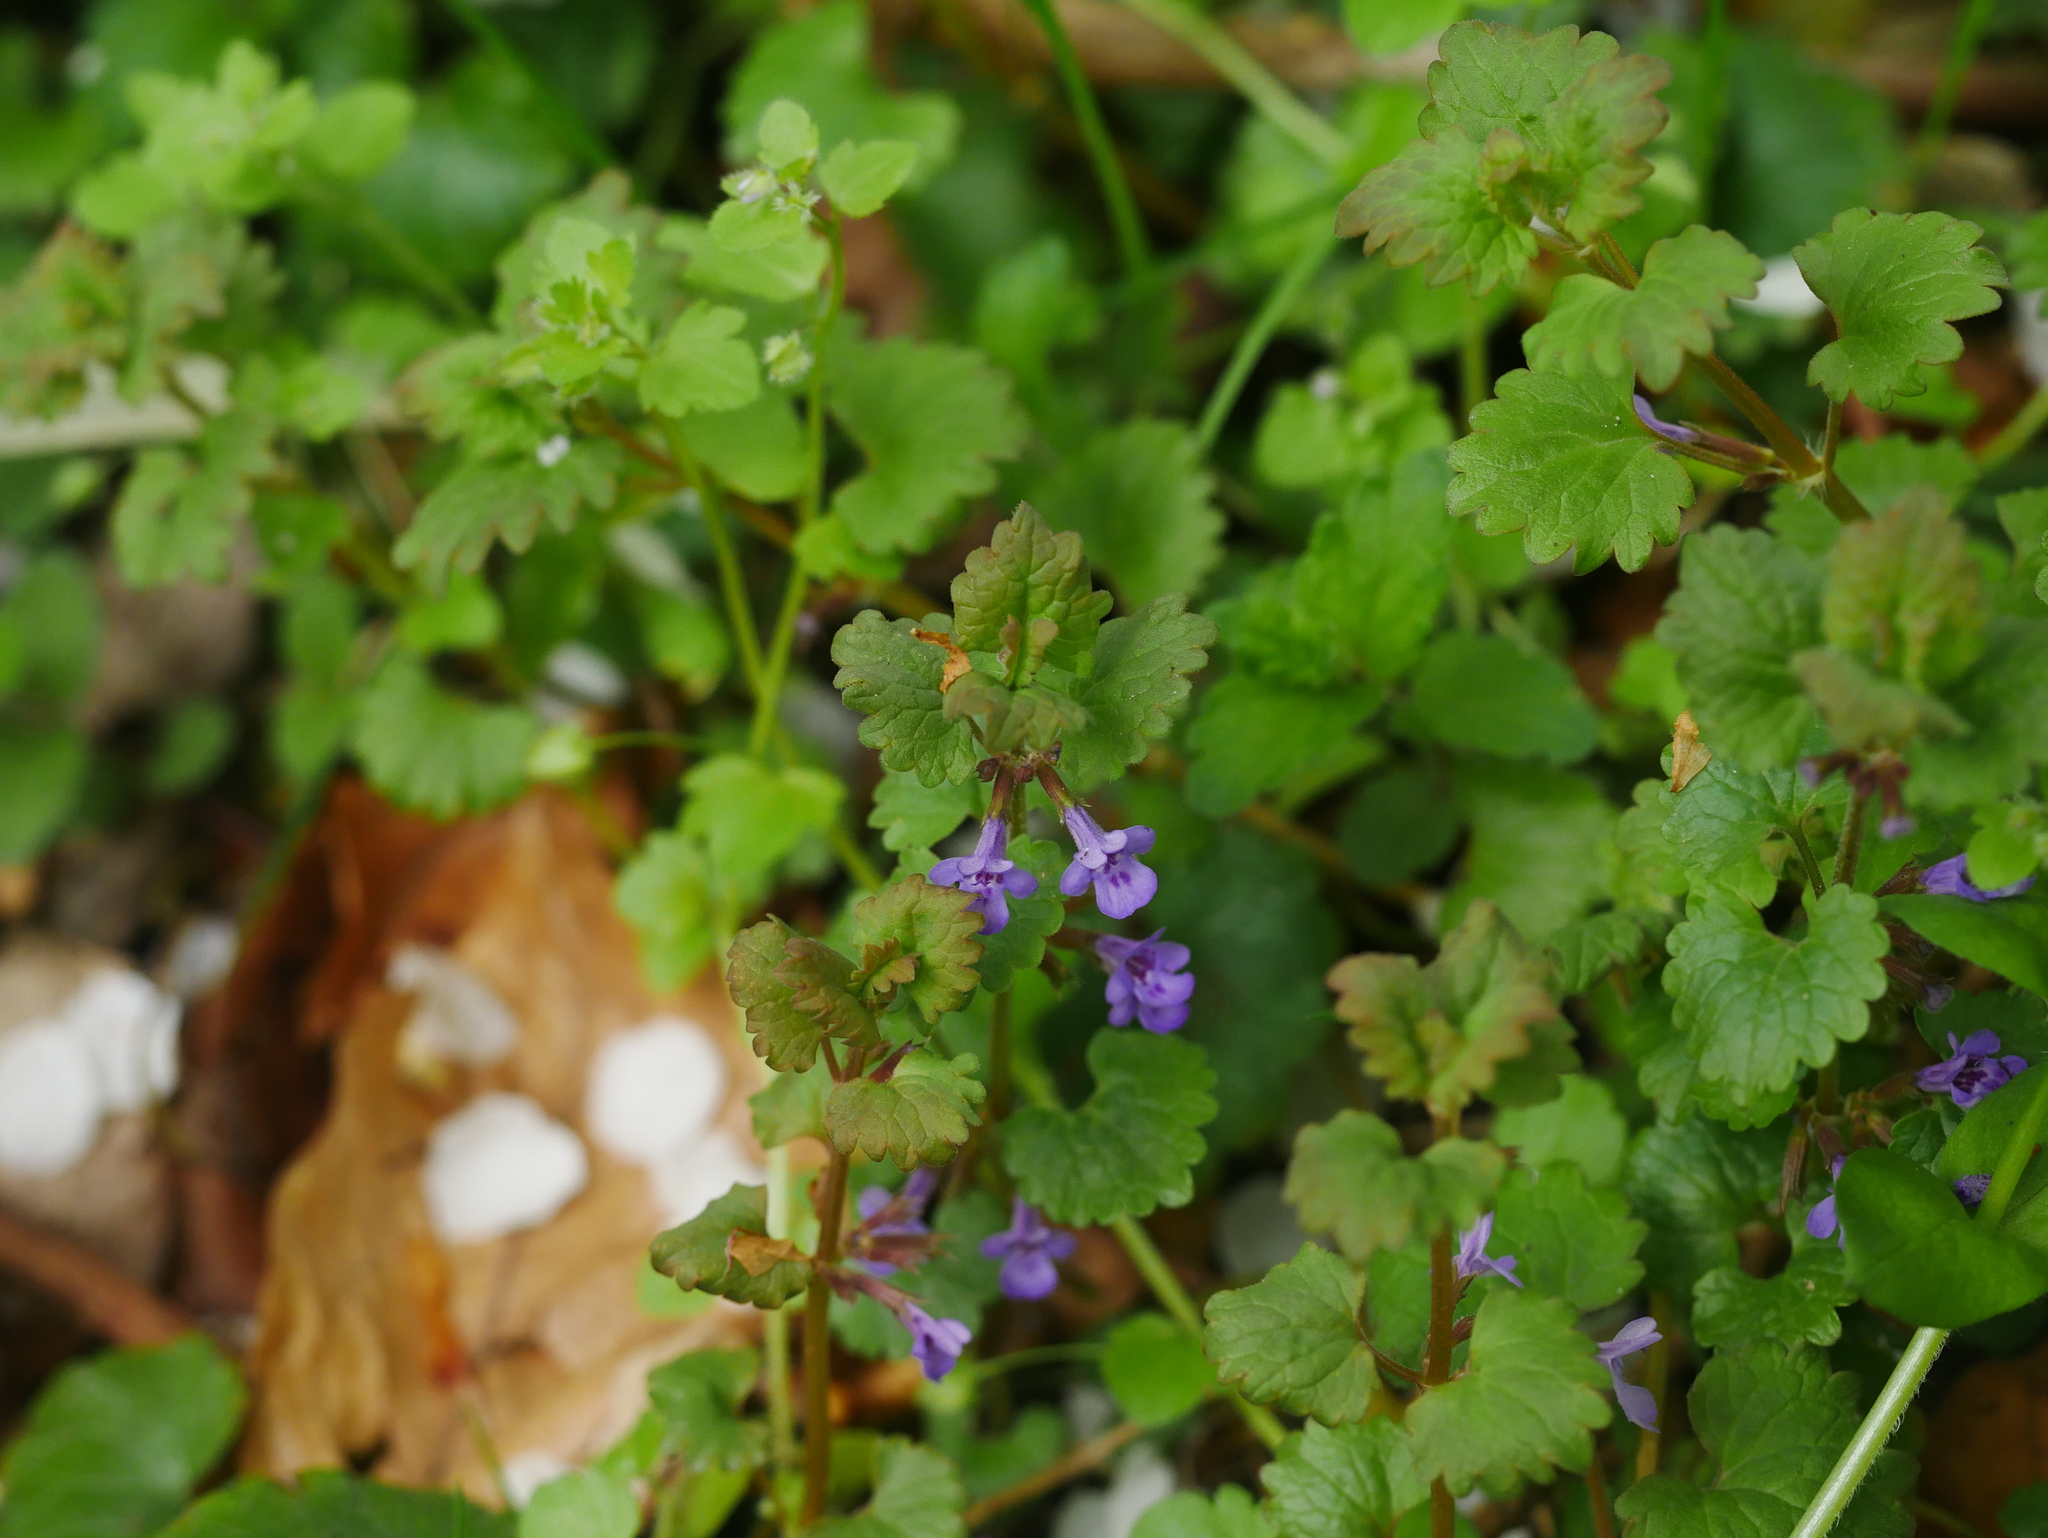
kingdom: Plantae
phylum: Tracheophyta
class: Magnoliopsida
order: Lamiales
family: Lamiaceae
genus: Glechoma
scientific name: Glechoma hederacea
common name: Ground ivy
